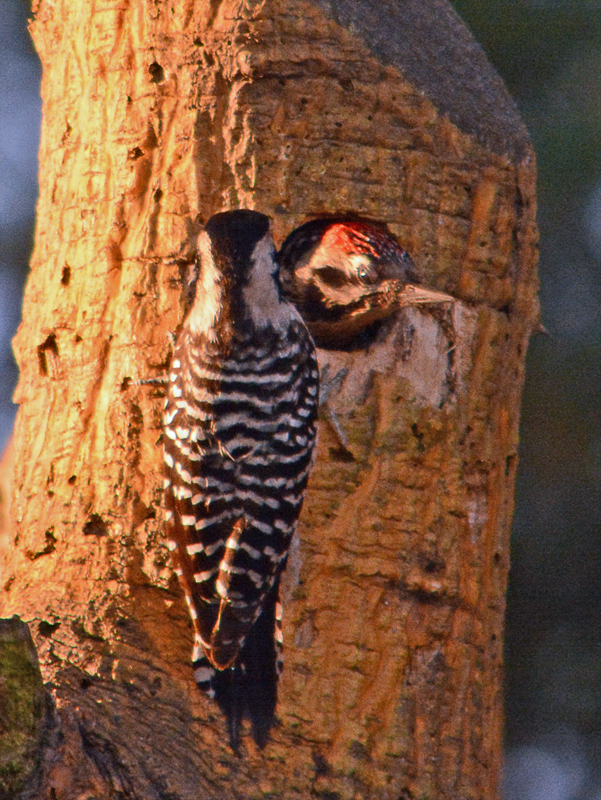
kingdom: Animalia
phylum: Chordata
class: Aves
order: Piciformes
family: Picidae
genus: Dryobates
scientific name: Dryobates scalaris
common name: Ladder-backed woodpecker
